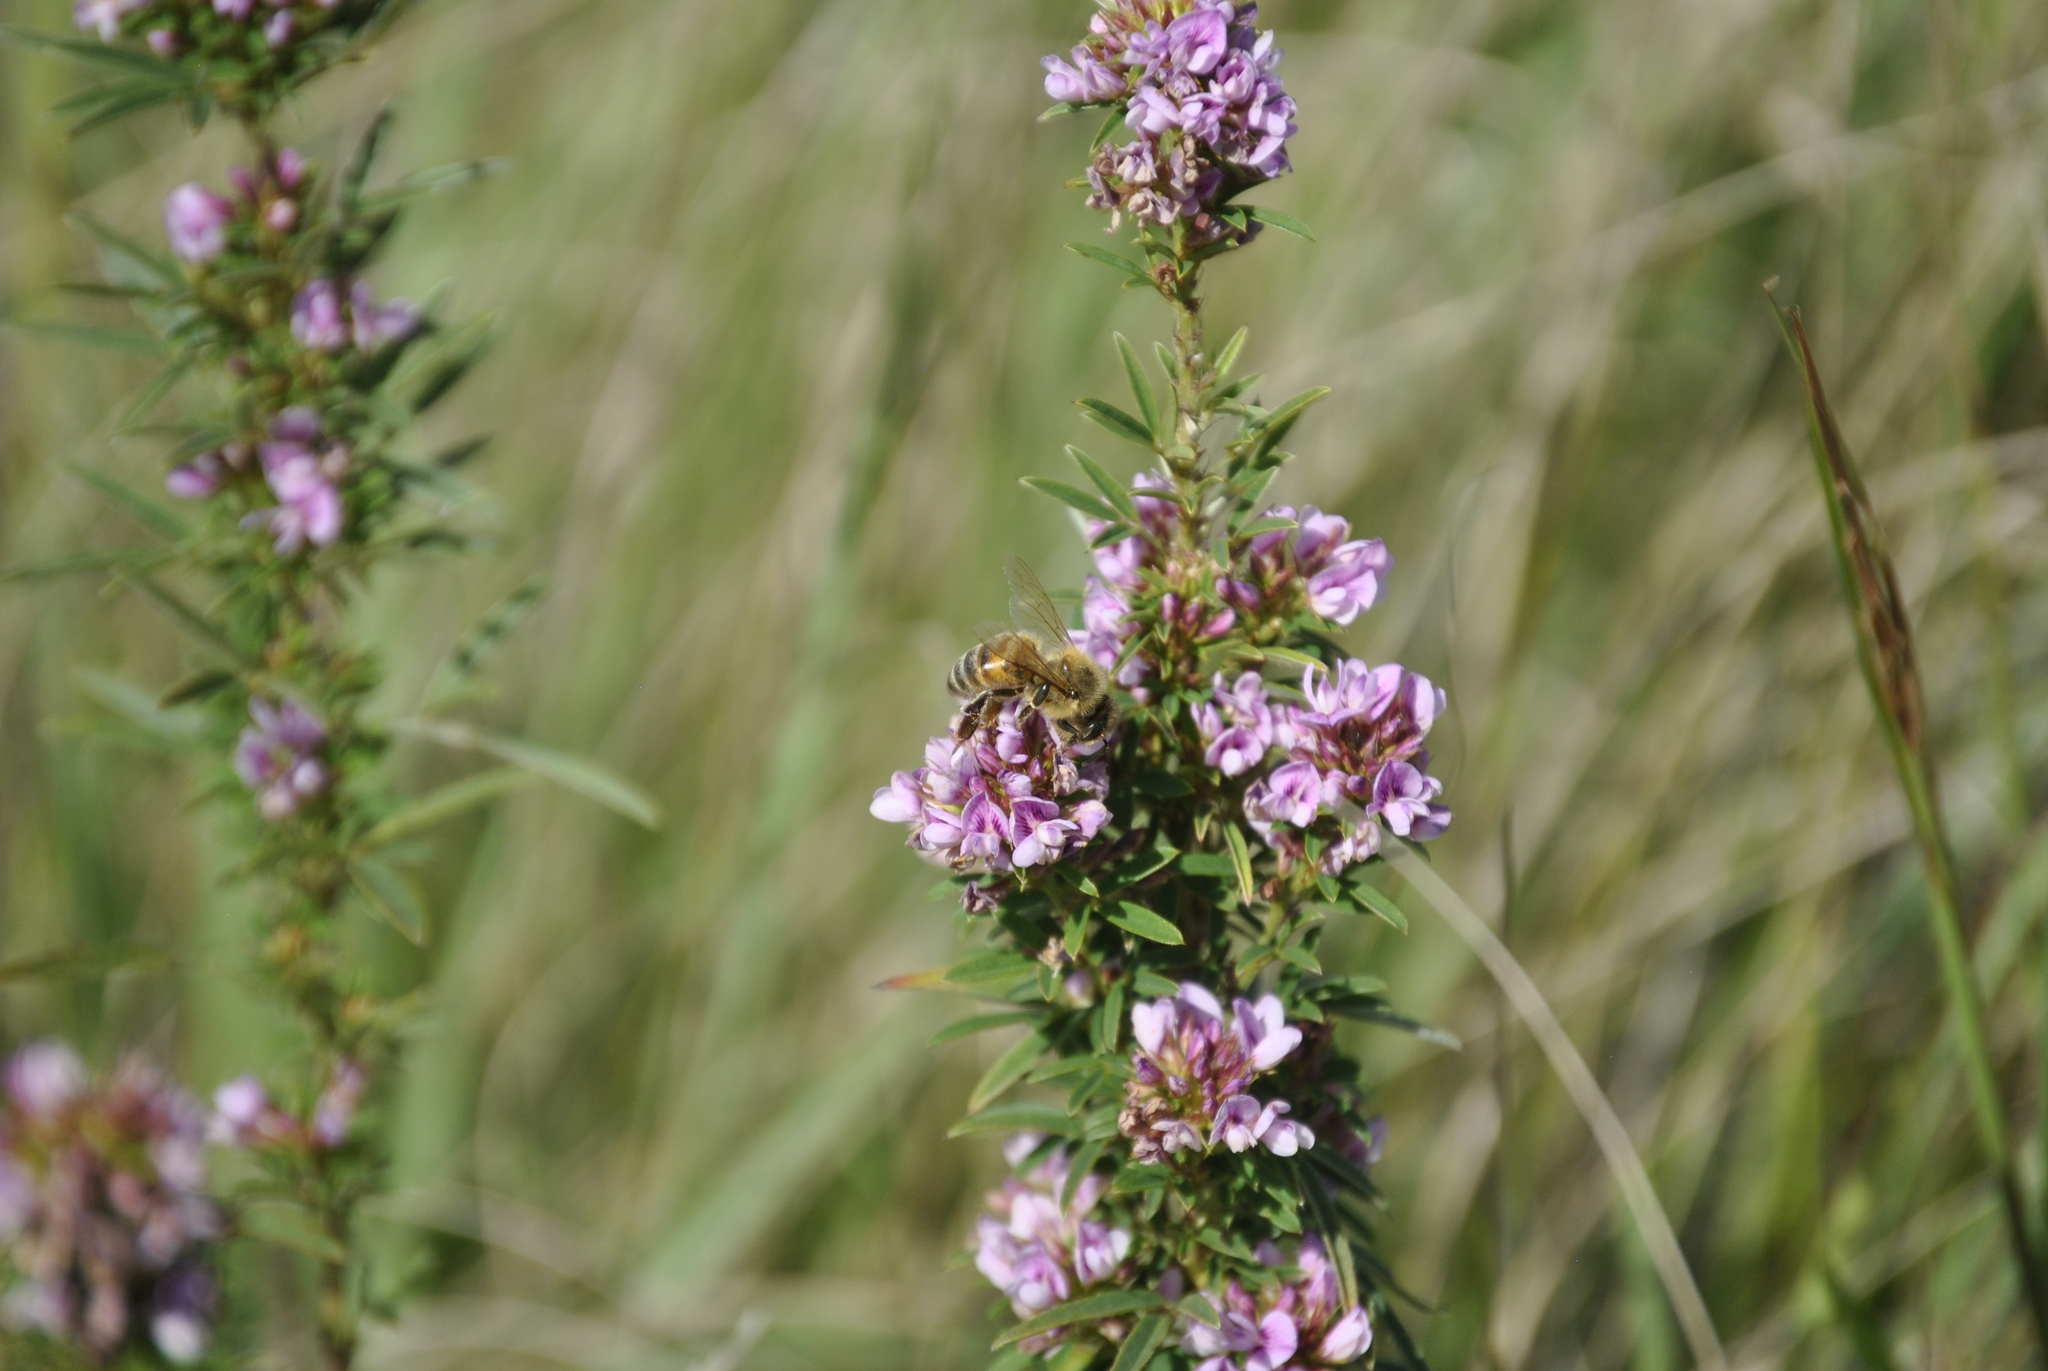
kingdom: Animalia
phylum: Arthropoda
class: Insecta
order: Hymenoptera
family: Apidae
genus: Apis
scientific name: Apis mellifera
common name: Honey bee
